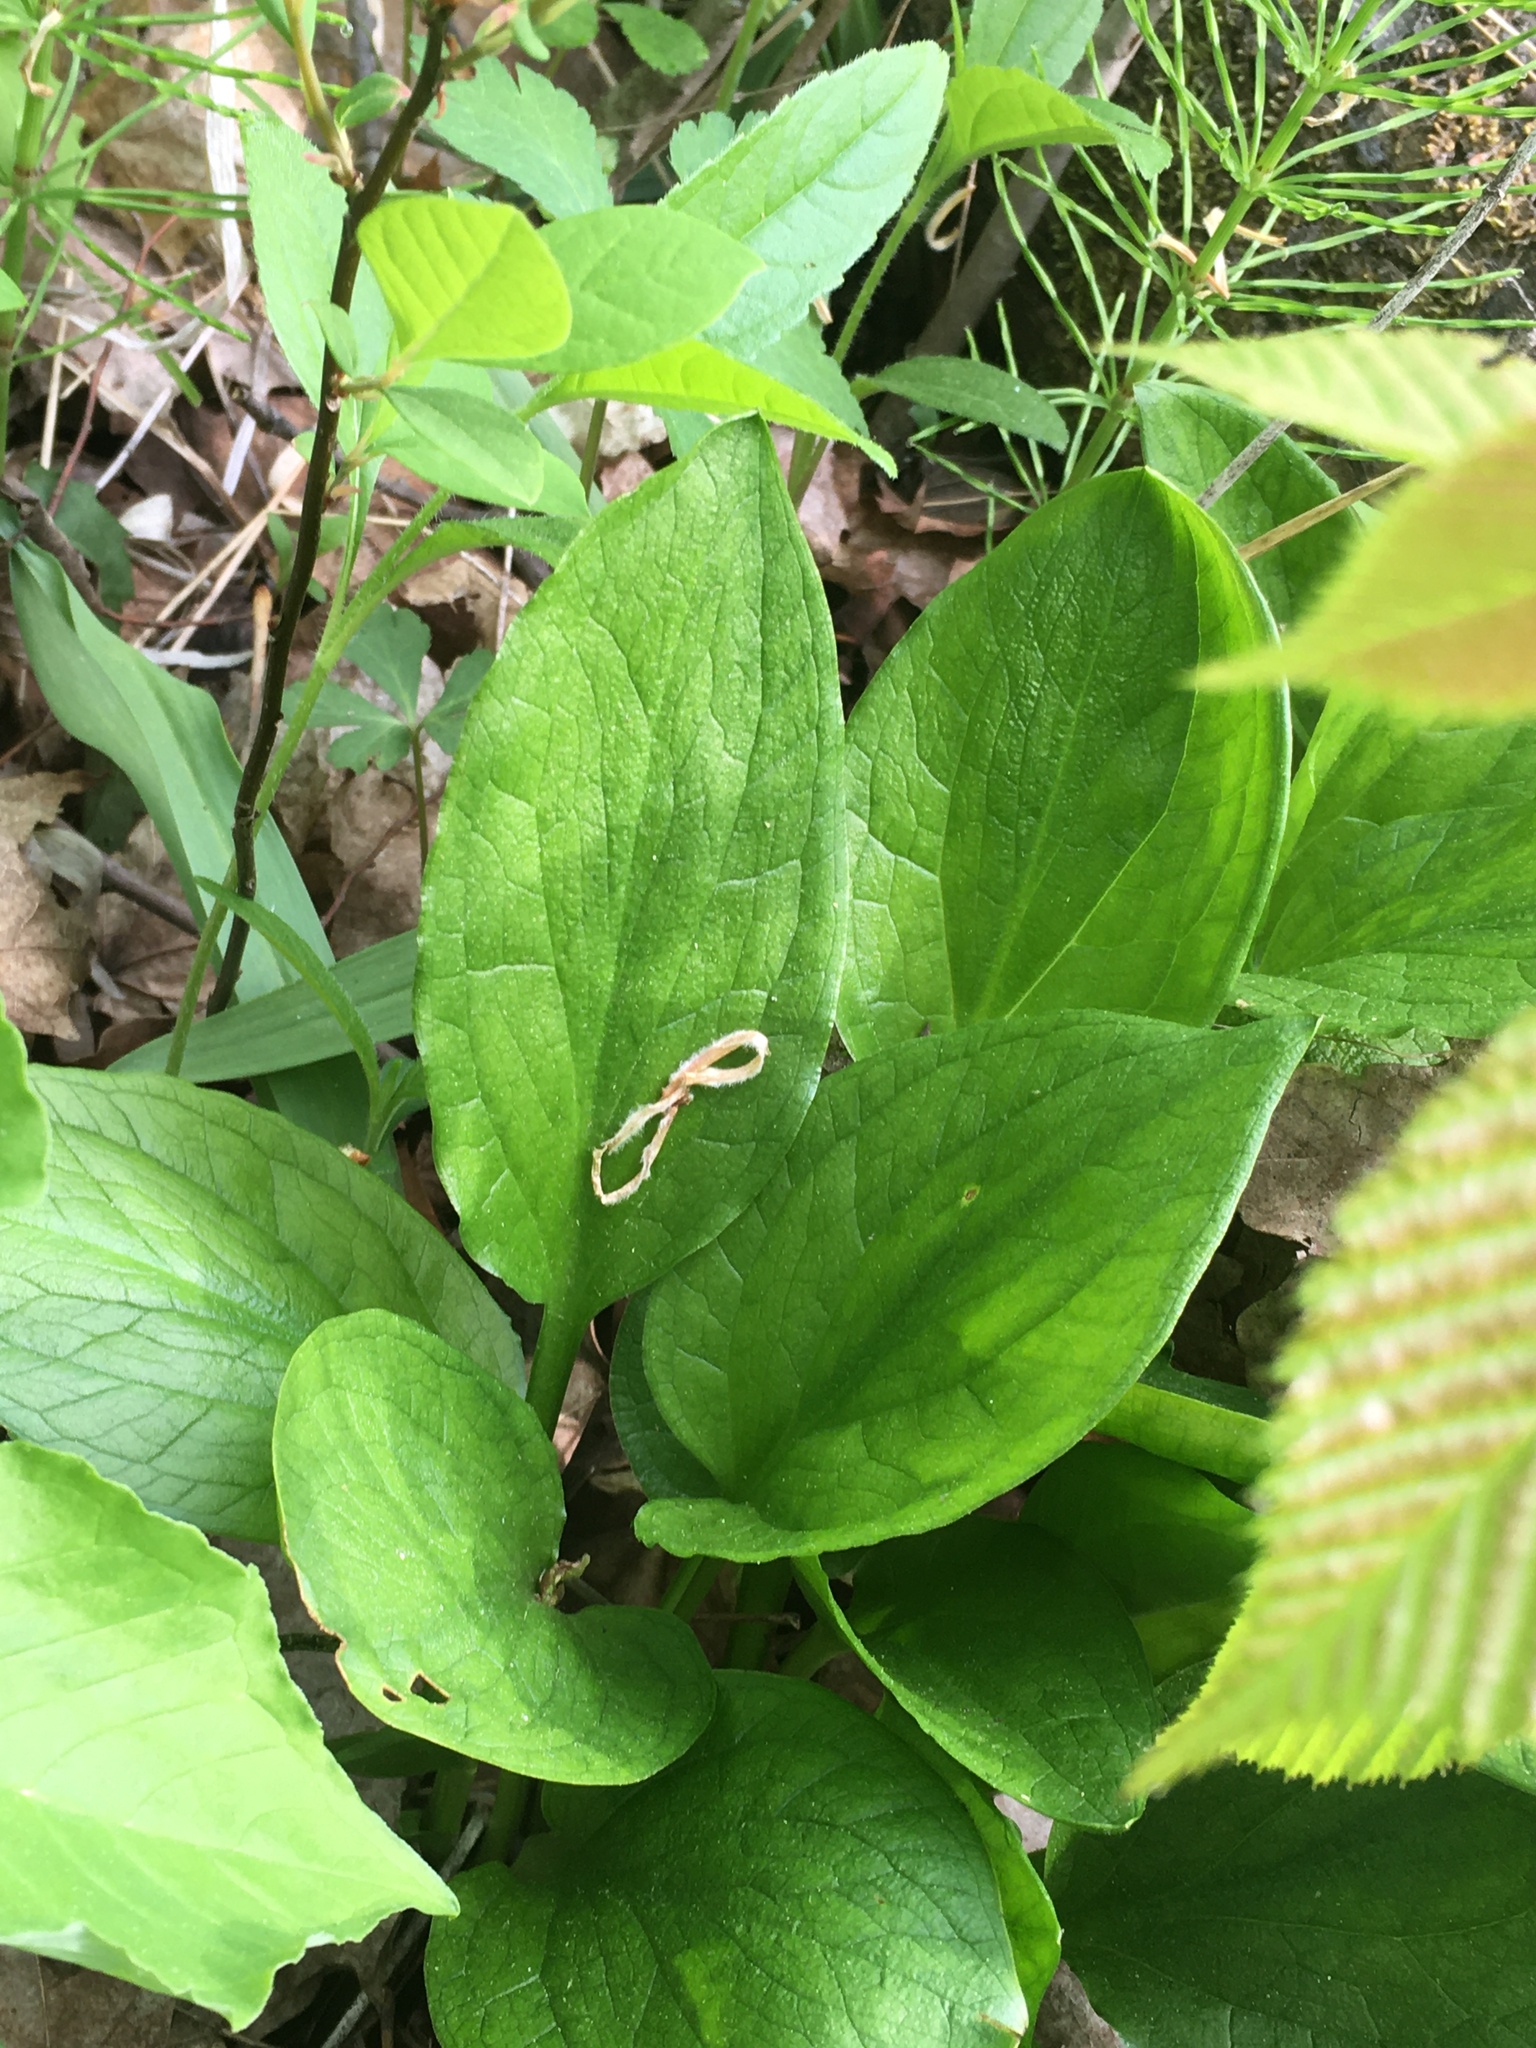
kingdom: Plantae
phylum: Tracheophyta
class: Liliopsida
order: Alismatales
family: Araceae
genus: Symplocarpus
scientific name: Symplocarpus foetidus
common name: Eastern skunk cabbage
